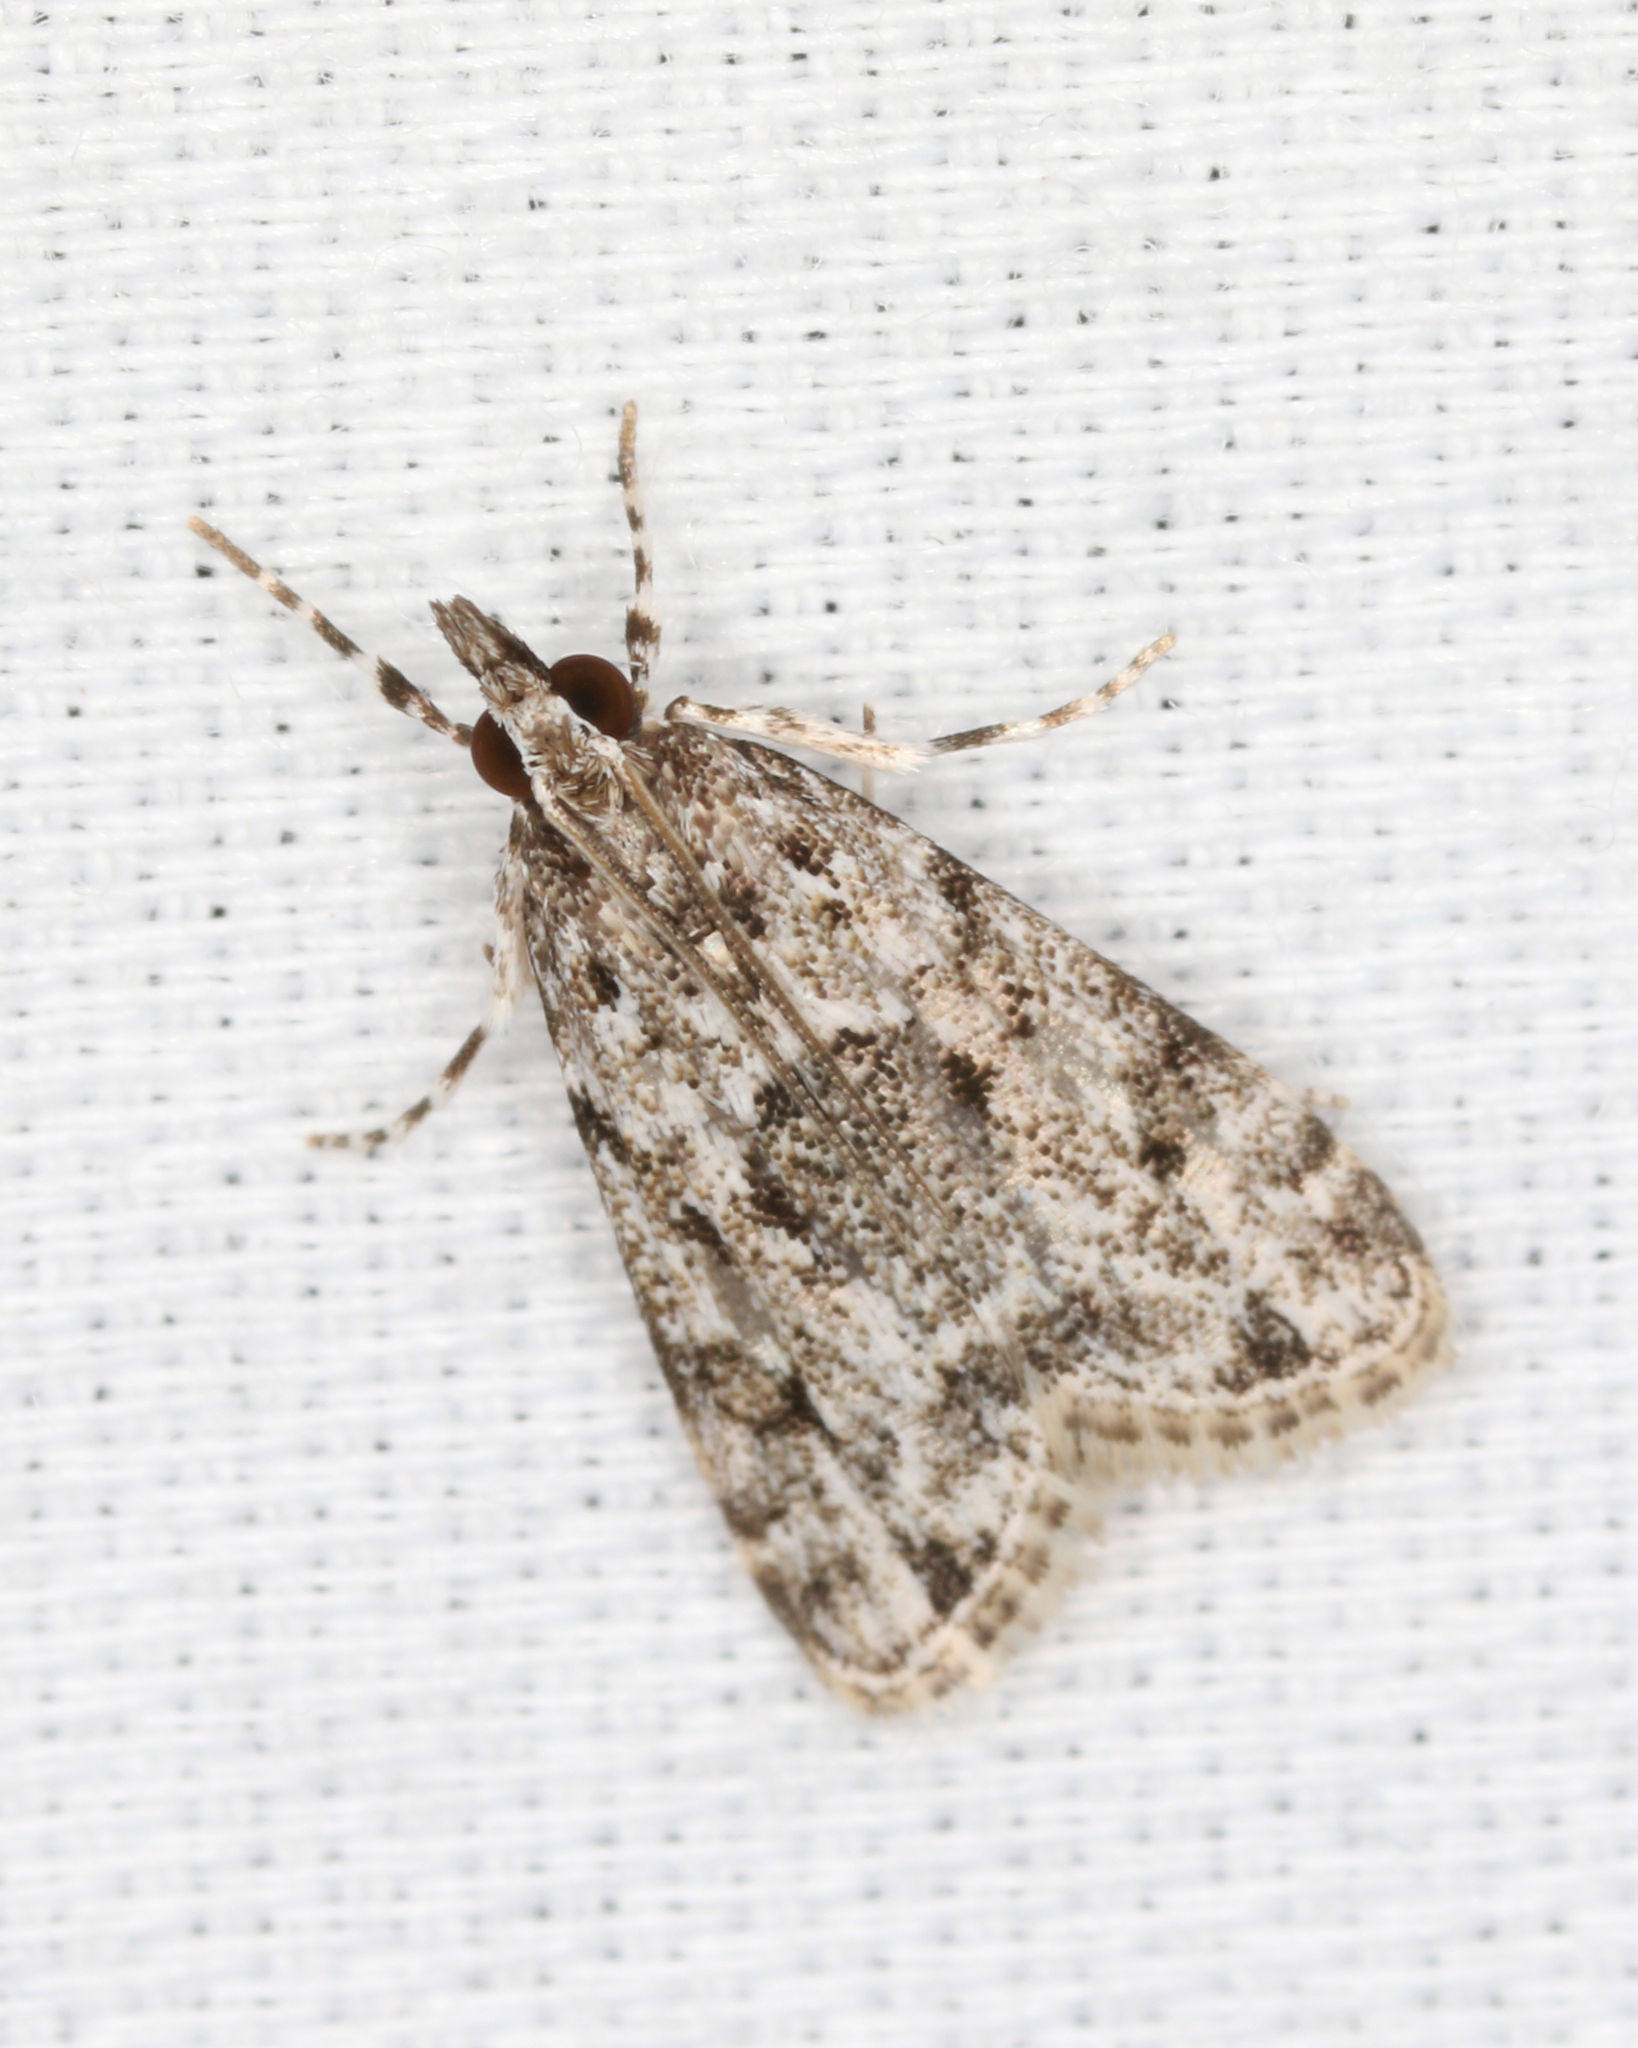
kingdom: Animalia
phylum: Arthropoda
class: Insecta
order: Lepidoptera
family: Crambidae
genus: Eudonia
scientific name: Eudonia heterosalis
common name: Mcdunnough's eudonia
